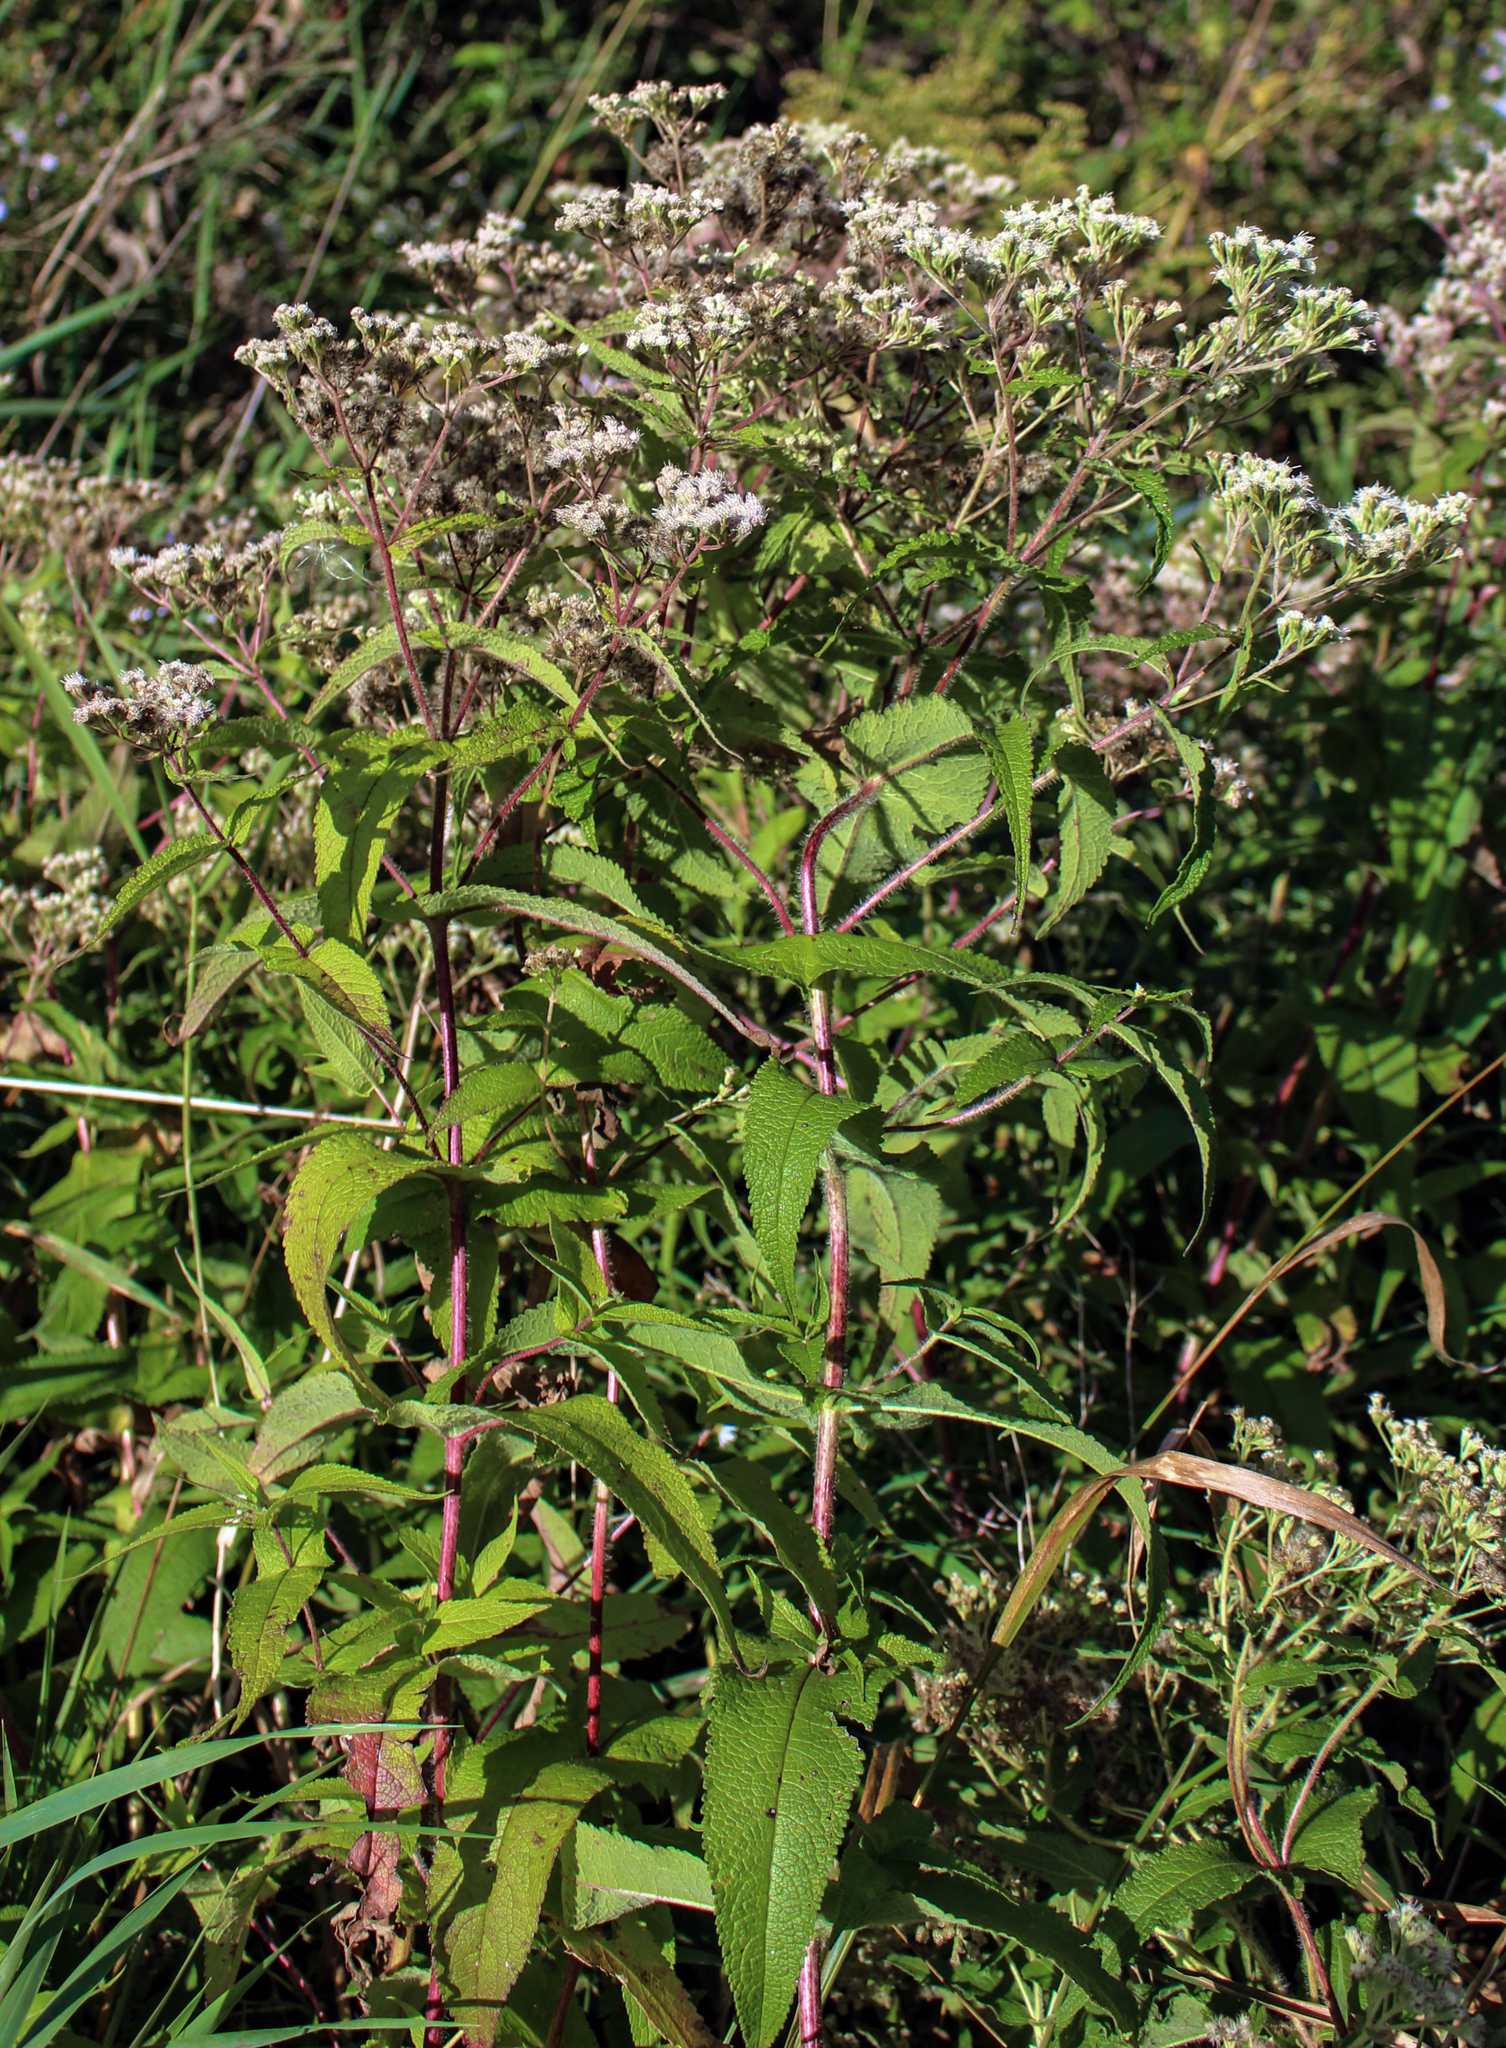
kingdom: Plantae
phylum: Tracheophyta
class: Magnoliopsida
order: Asterales
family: Asteraceae
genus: Eupatorium
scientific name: Eupatorium perfoliatum
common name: Boneset
